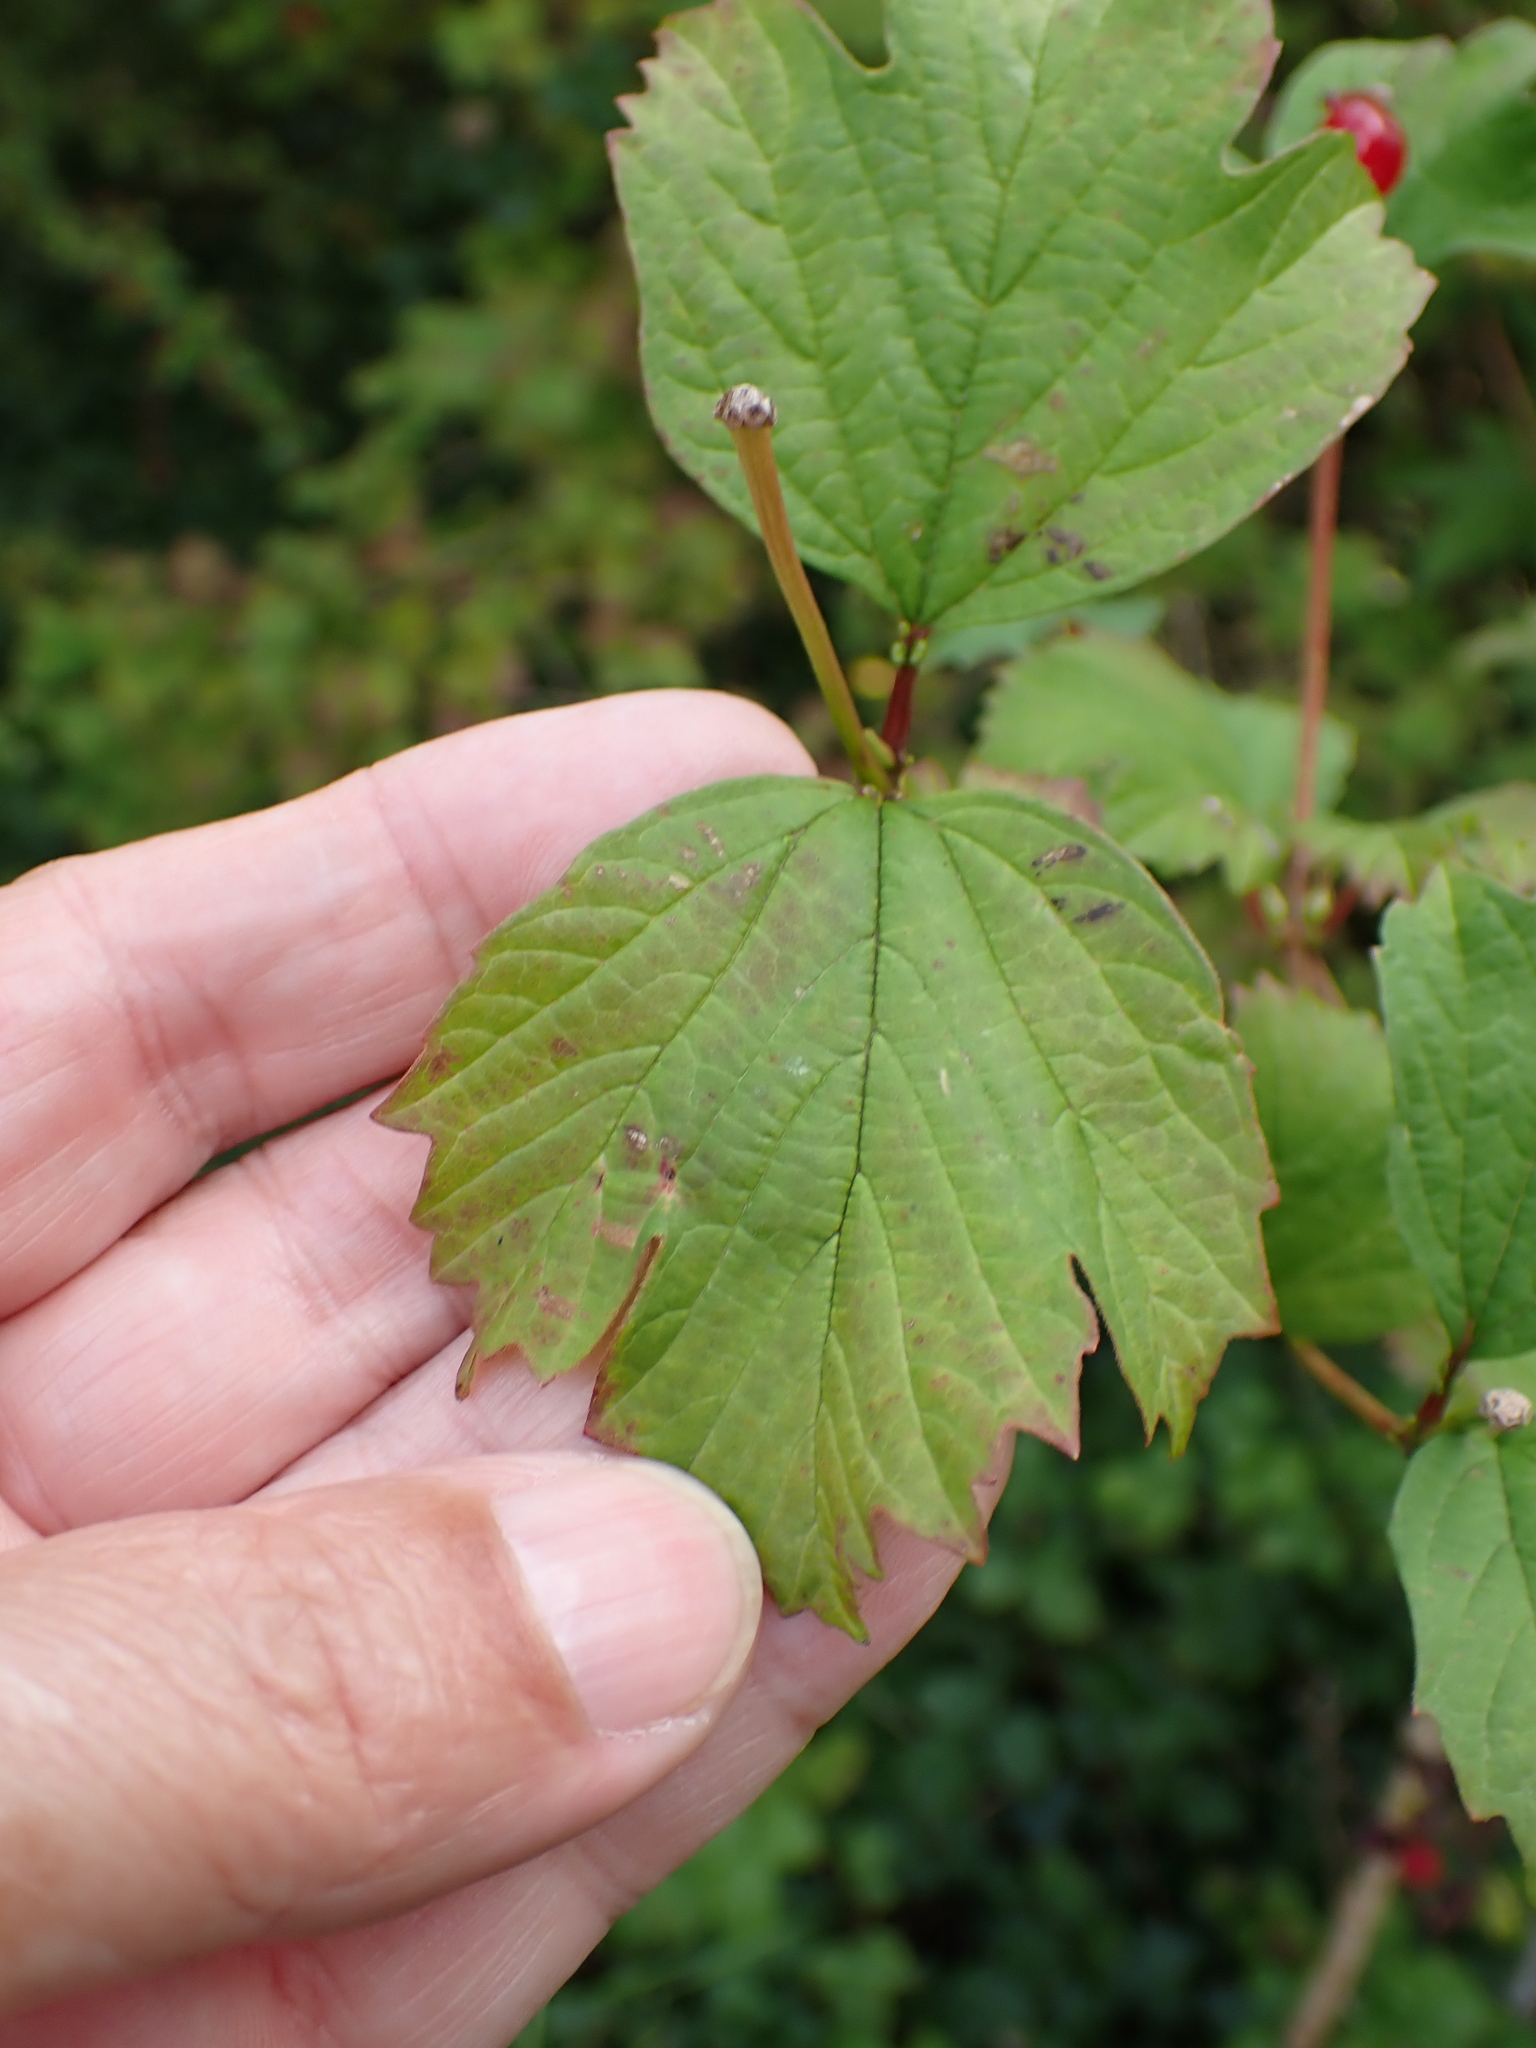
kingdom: Plantae
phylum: Tracheophyta
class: Magnoliopsida
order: Dipsacales
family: Viburnaceae
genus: Viburnum
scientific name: Viburnum opulus
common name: Guelder-rose
